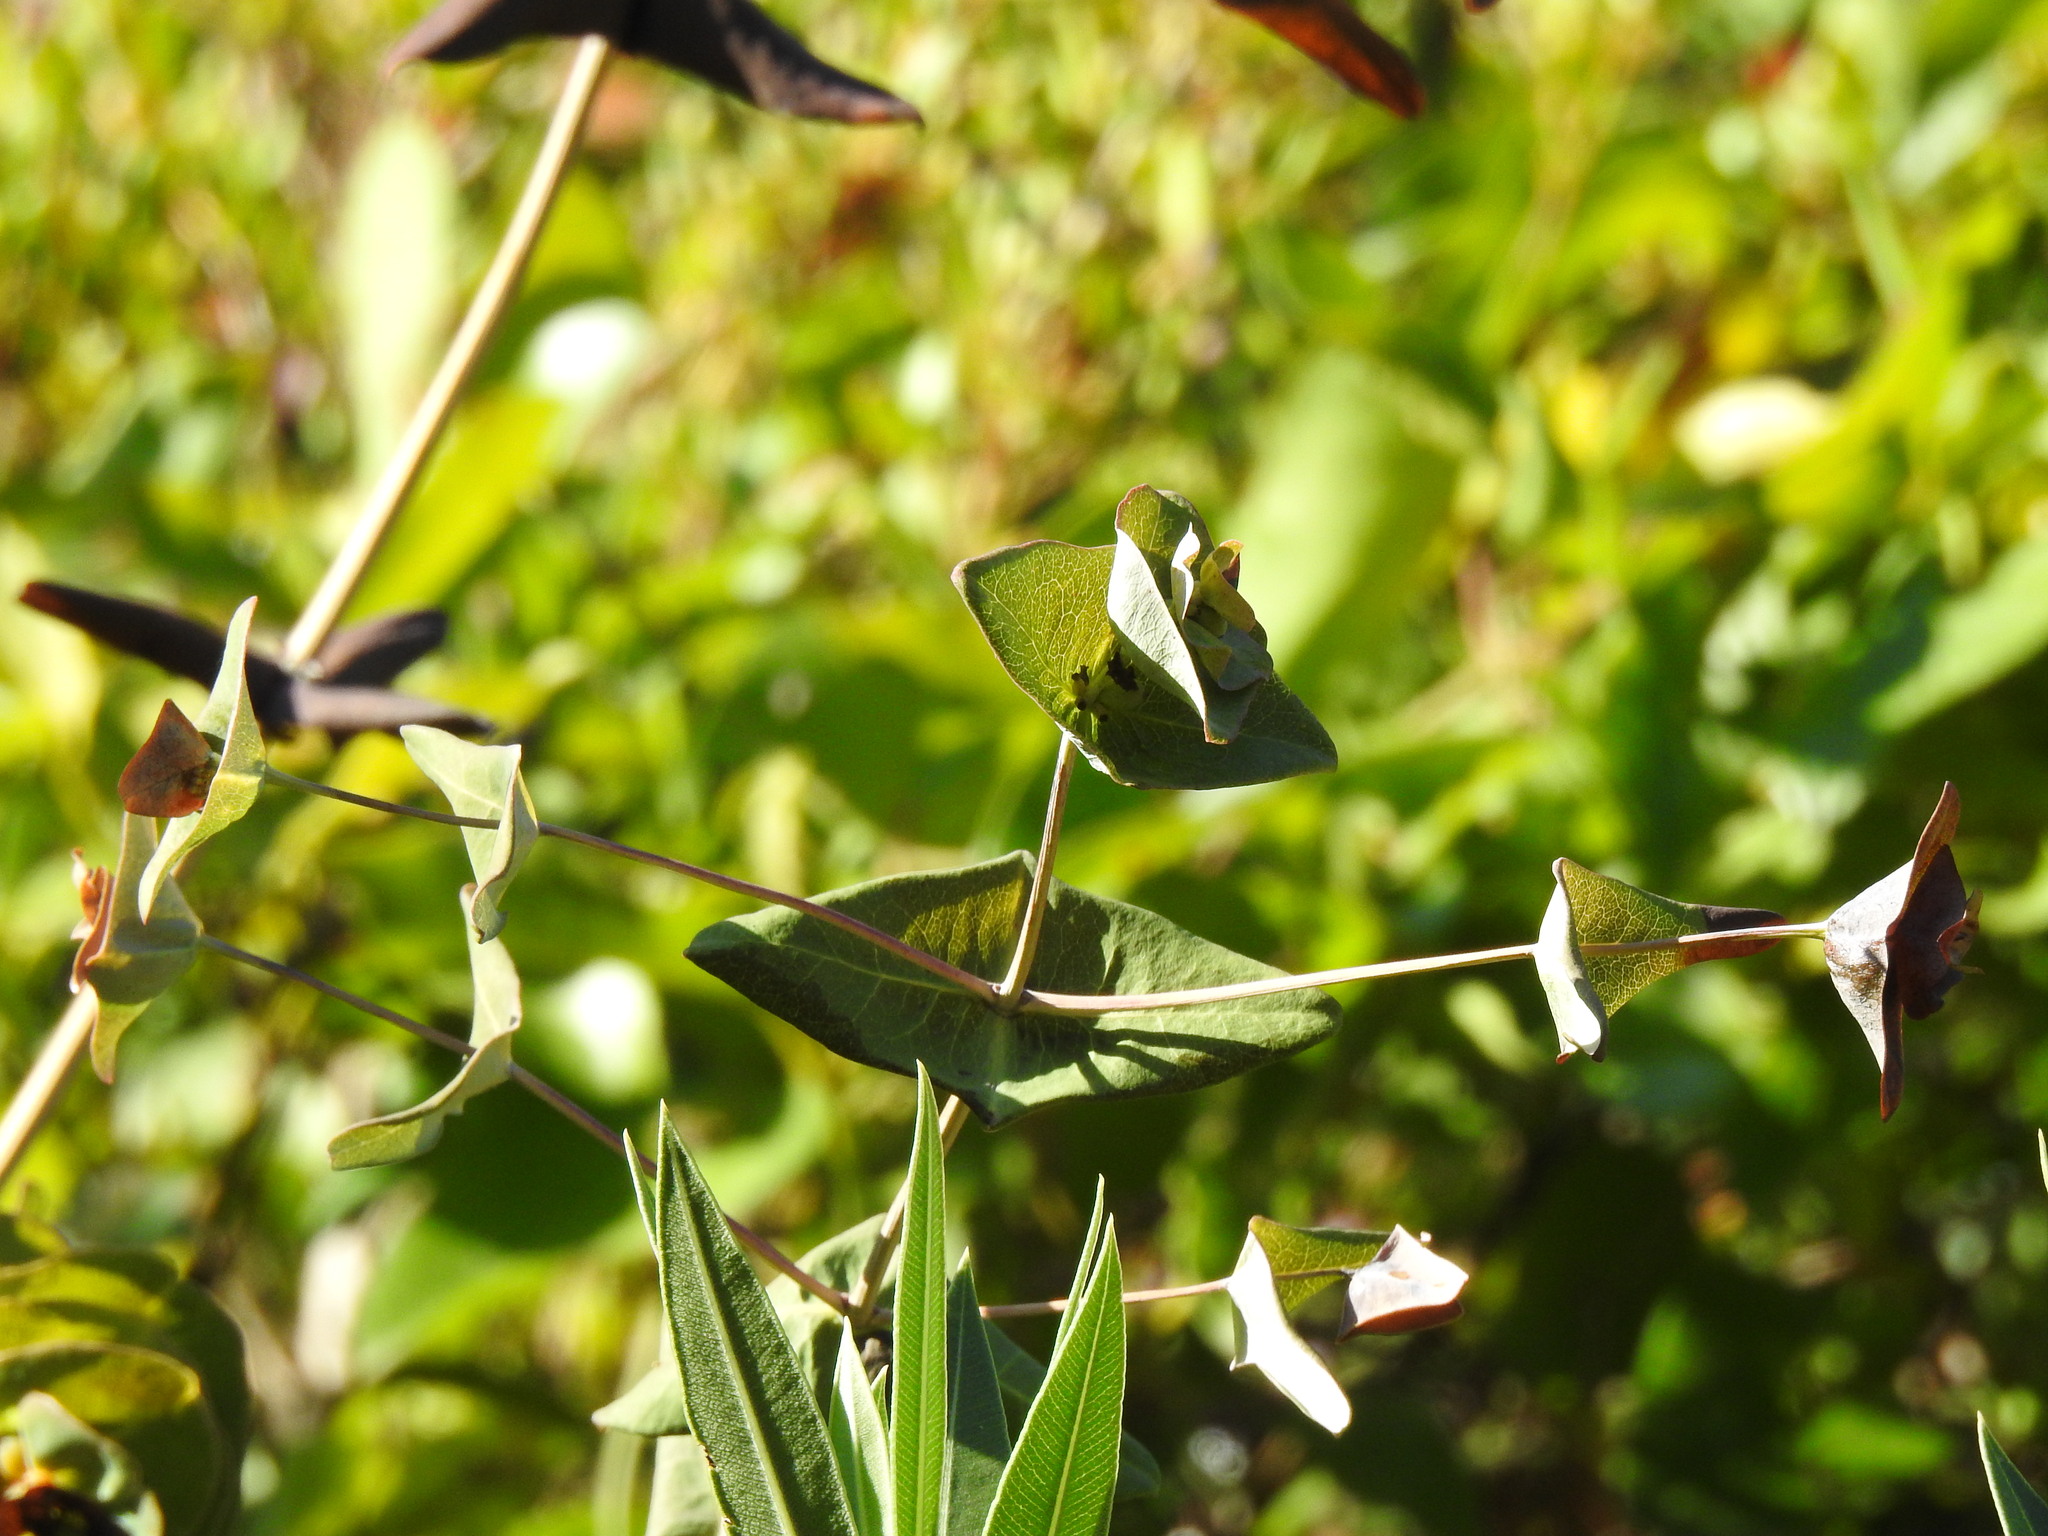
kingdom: Plantae
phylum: Tracheophyta
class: Magnoliopsida
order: Dipsacales
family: Caprifoliaceae
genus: Lonicera
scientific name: Lonicera implexa
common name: Minorca honeysuckle
